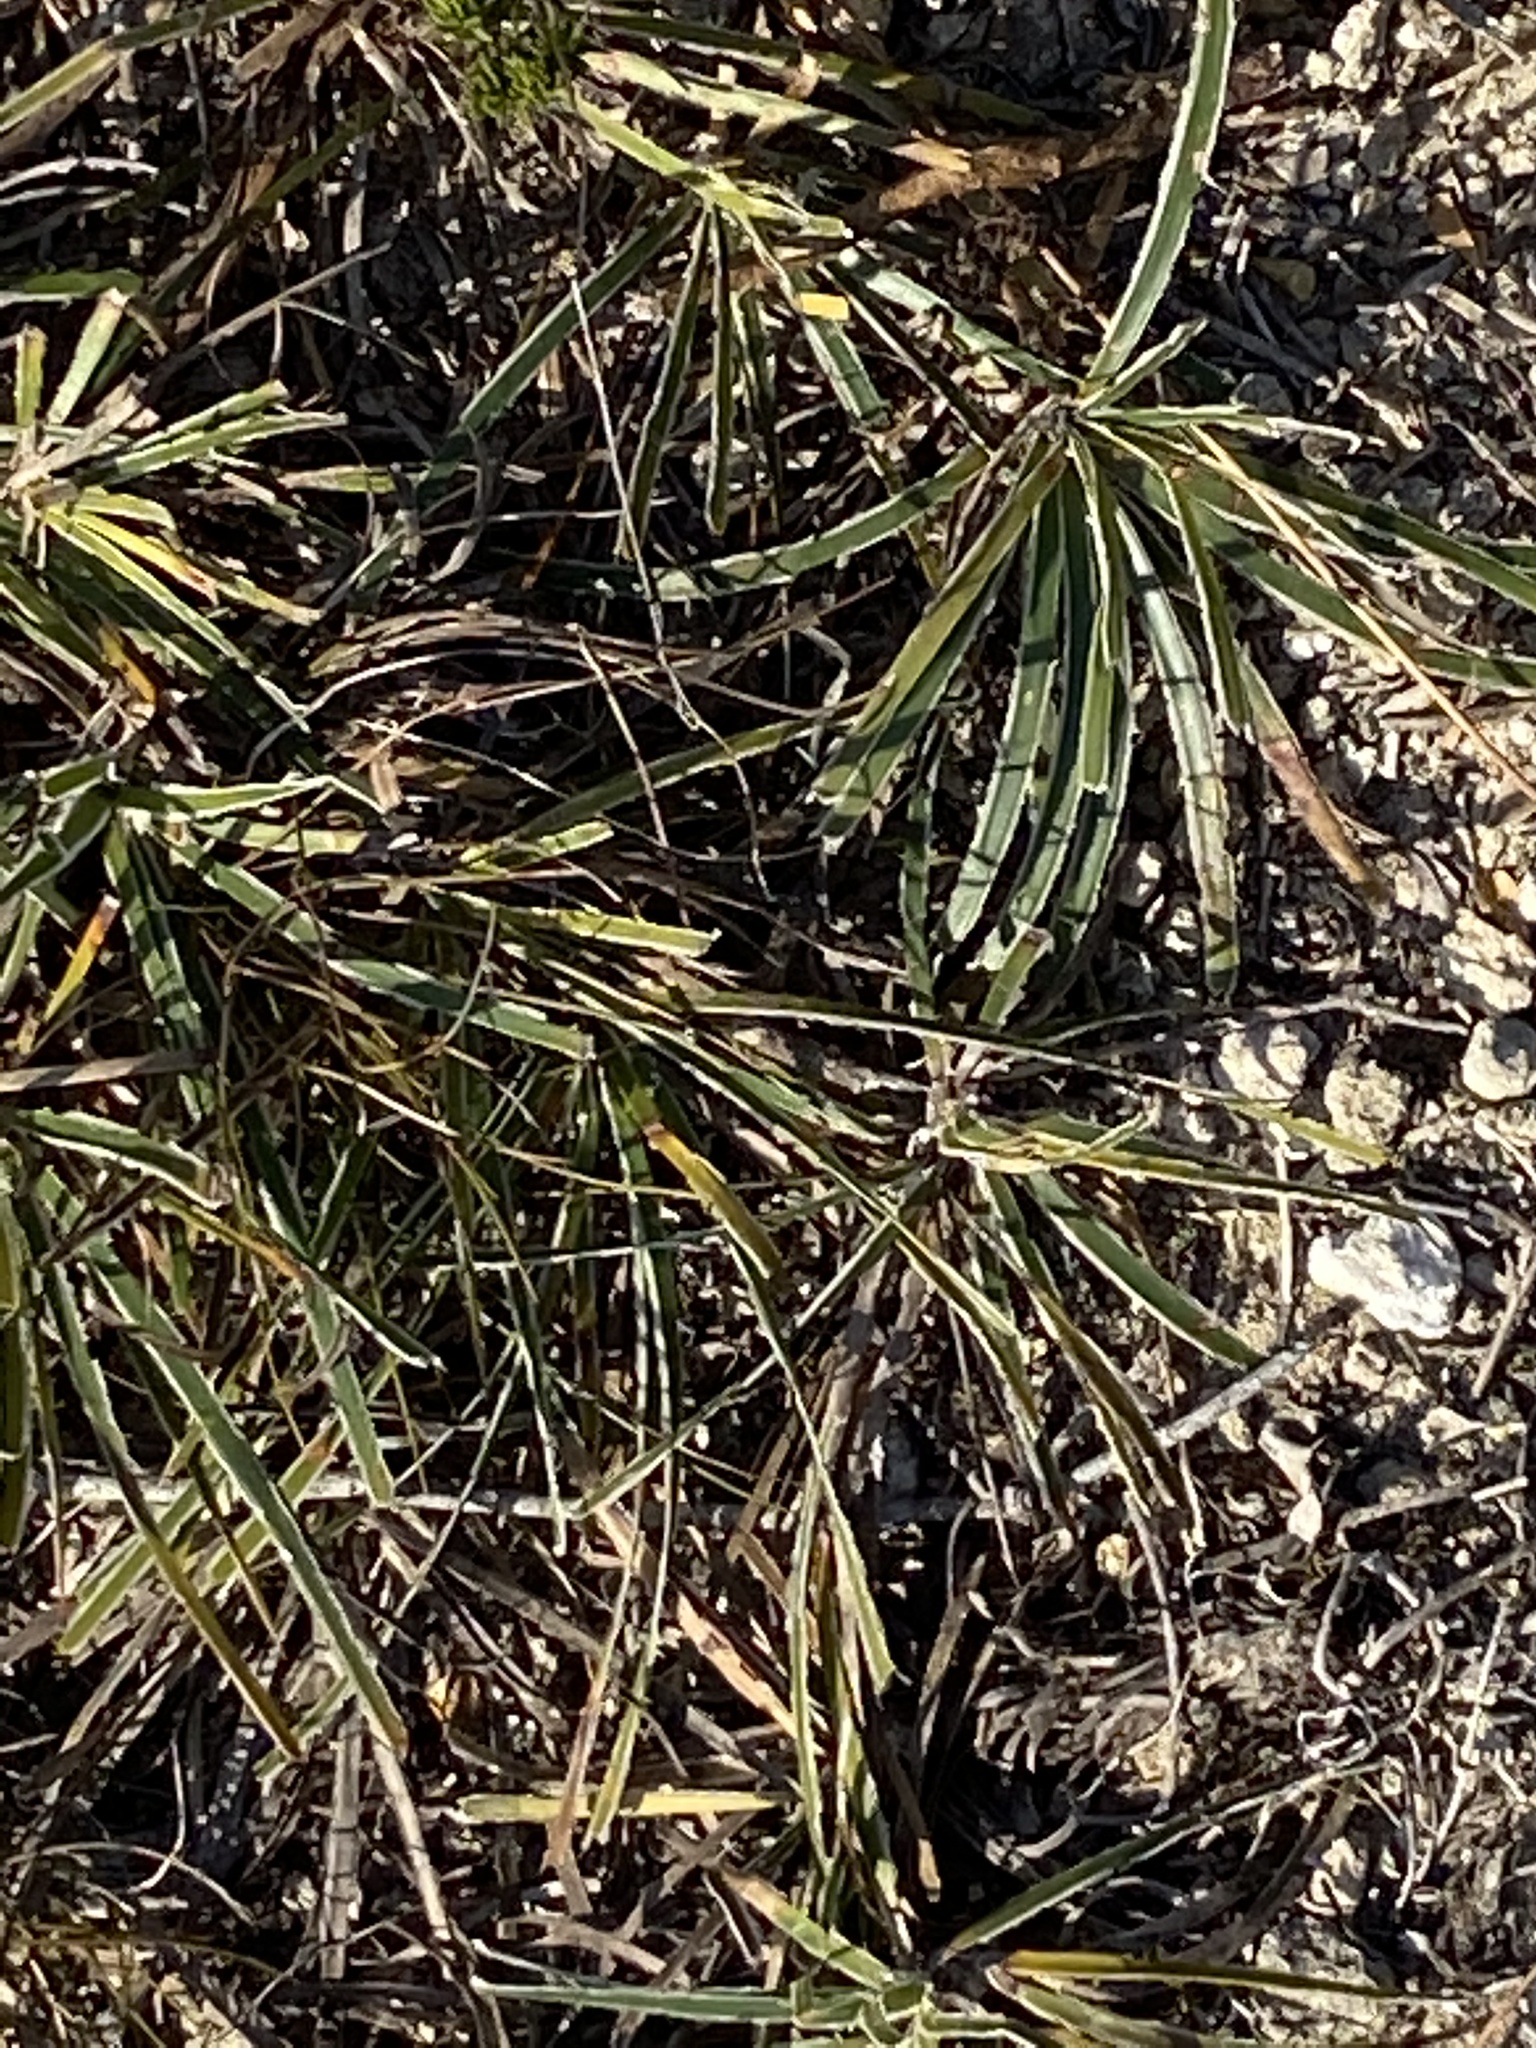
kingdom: Plantae
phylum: Tracheophyta
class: Liliopsida
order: Poales
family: Cyperaceae
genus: Ficinia
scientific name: Ficinia truncata
